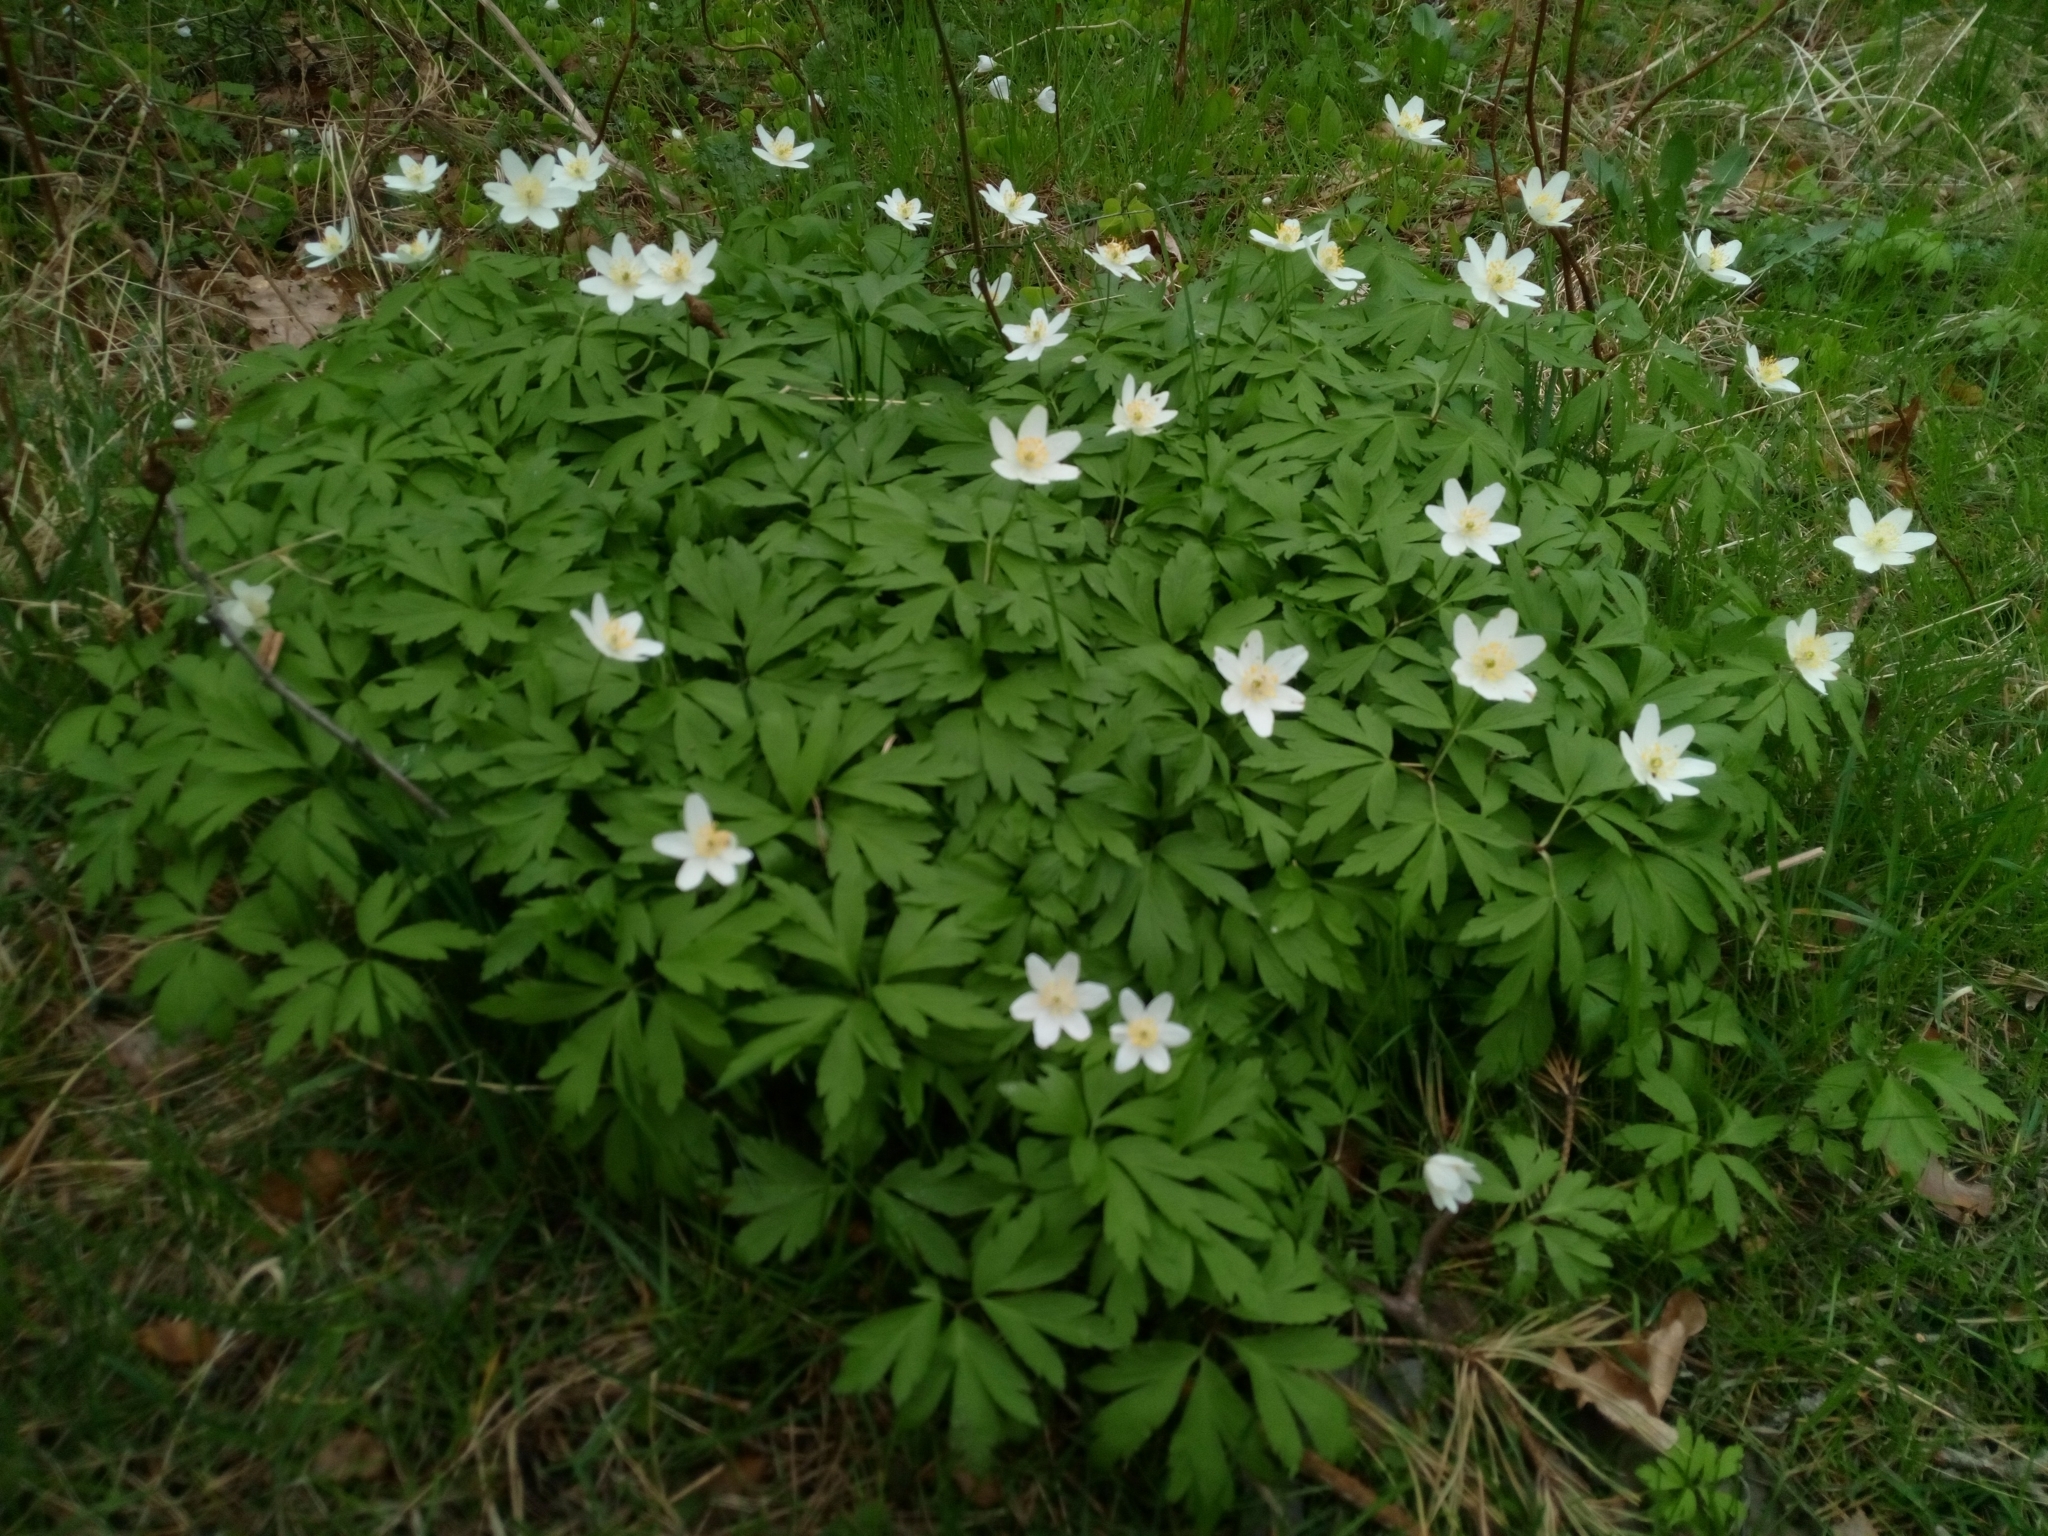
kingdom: Plantae
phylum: Tracheophyta
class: Magnoliopsida
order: Ranunculales
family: Ranunculaceae
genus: Anemone
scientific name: Anemone nemorosa
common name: Wood anemone
